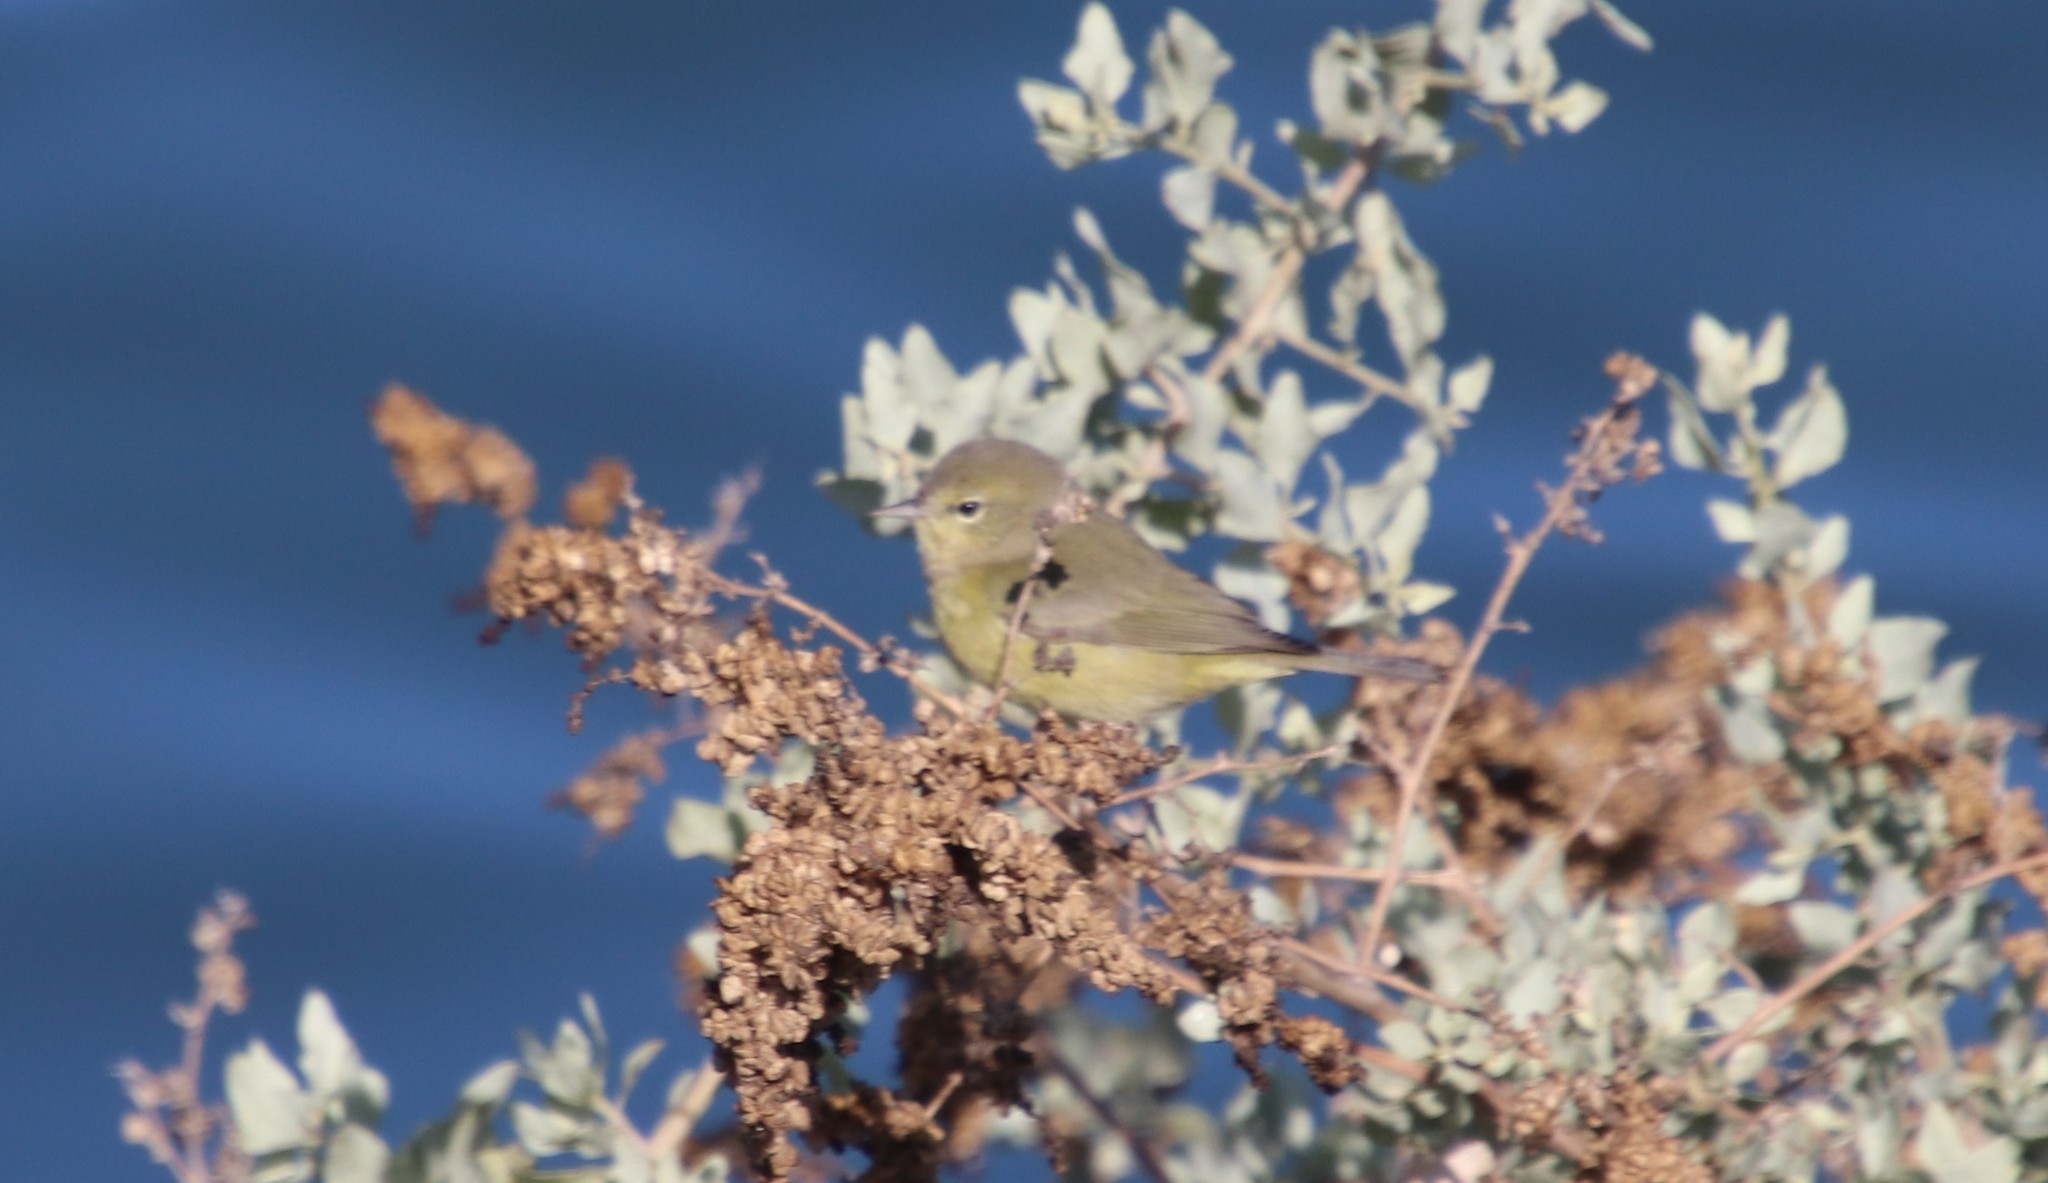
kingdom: Animalia
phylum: Chordata
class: Aves
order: Passeriformes
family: Parulidae
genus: Leiothlypis
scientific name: Leiothlypis celata
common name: Orange-crowned warbler
